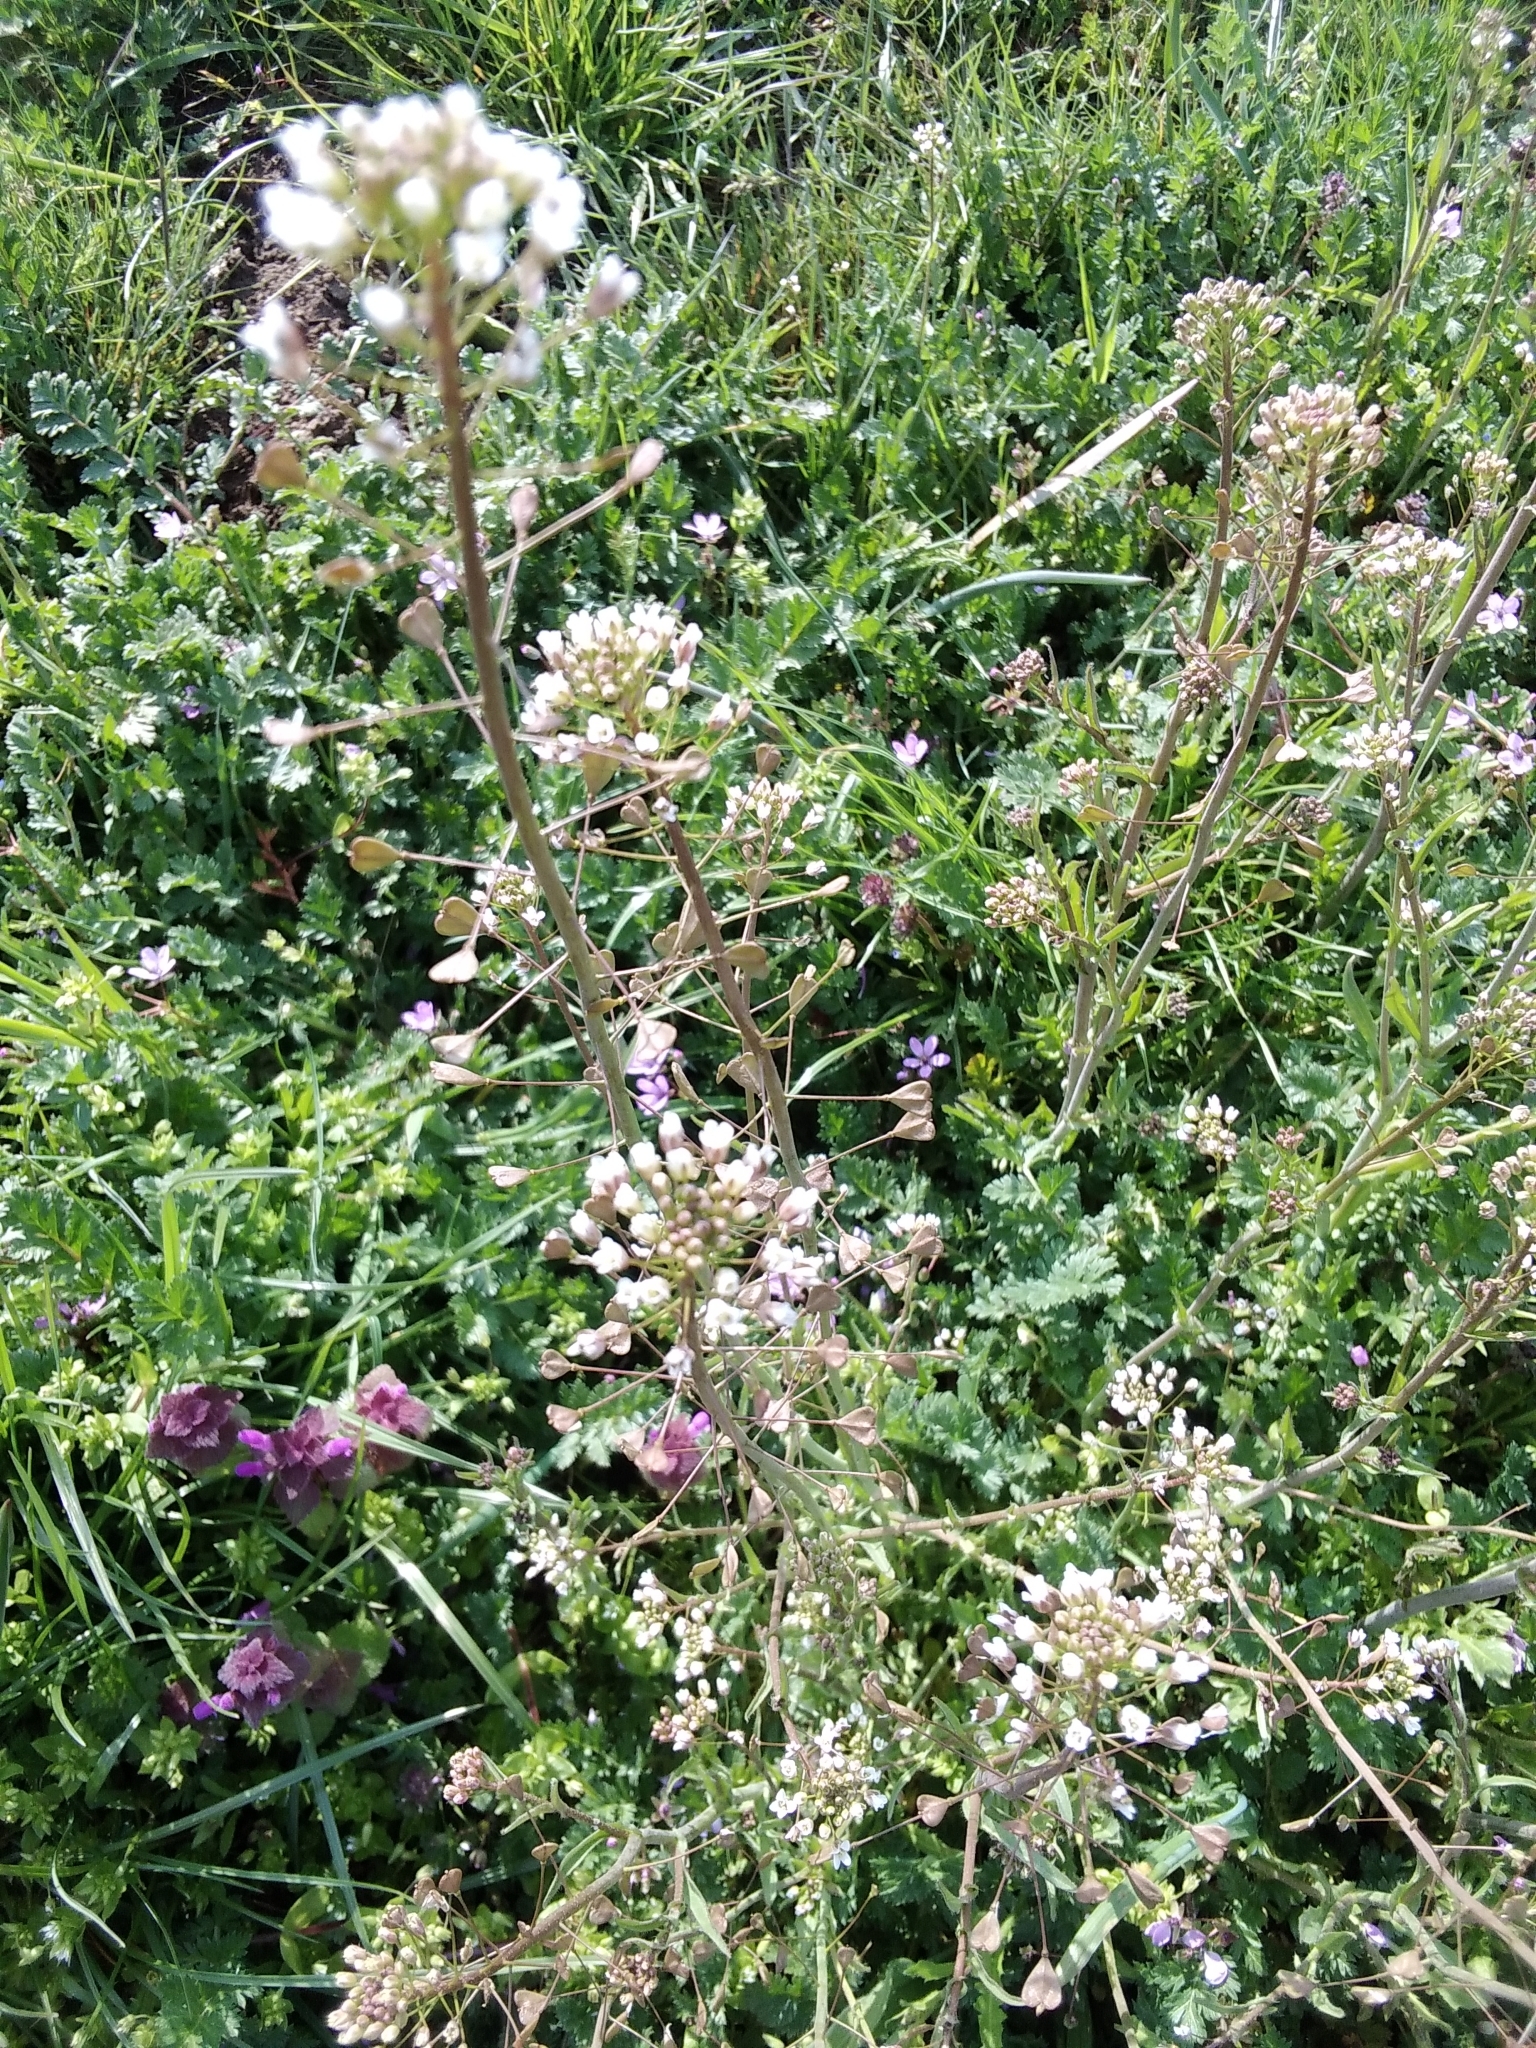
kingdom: Plantae
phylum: Tracheophyta
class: Magnoliopsida
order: Brassicales
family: Brassicaceae
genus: Capsella
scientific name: Capsella bursa-pastoris
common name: Shepherd's purse
